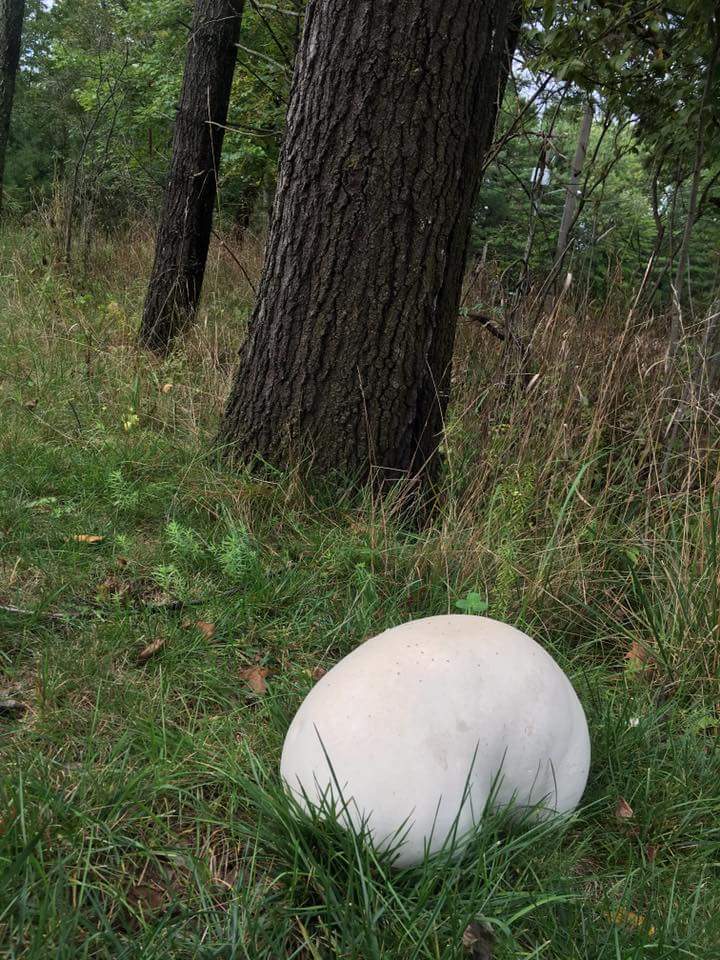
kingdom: Fungi
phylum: Basidiomycota
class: Agaricomycetes
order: Agaricales
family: Lycoperdaceae
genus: Calvatia
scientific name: Calvatia gigantea
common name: Giant puffball
